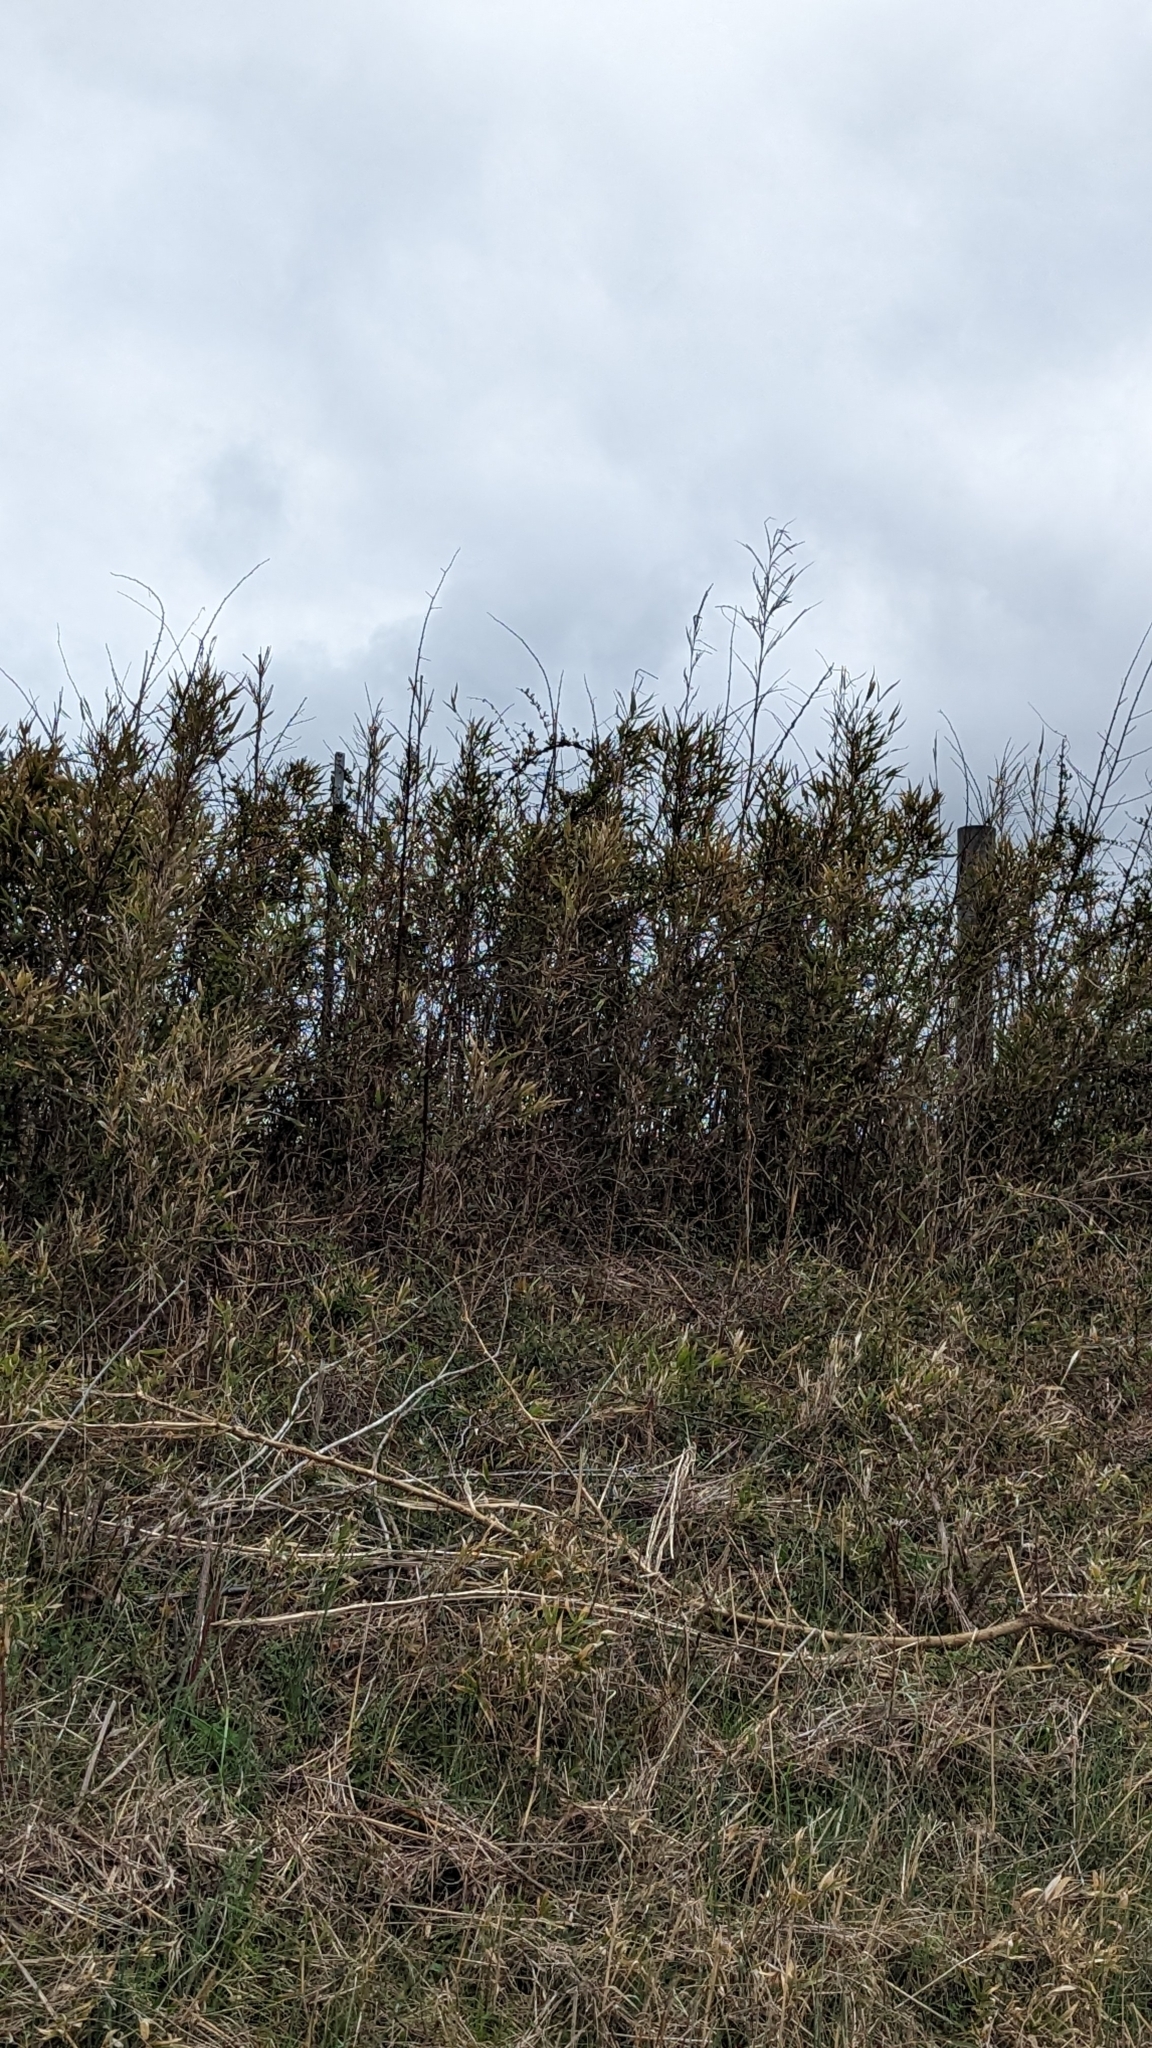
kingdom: Plantae
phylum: Tracheophyta
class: Liliopsida
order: Poales
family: Poaceae
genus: Arundinaria
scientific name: Arundinaria gigantea
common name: Giant cane
